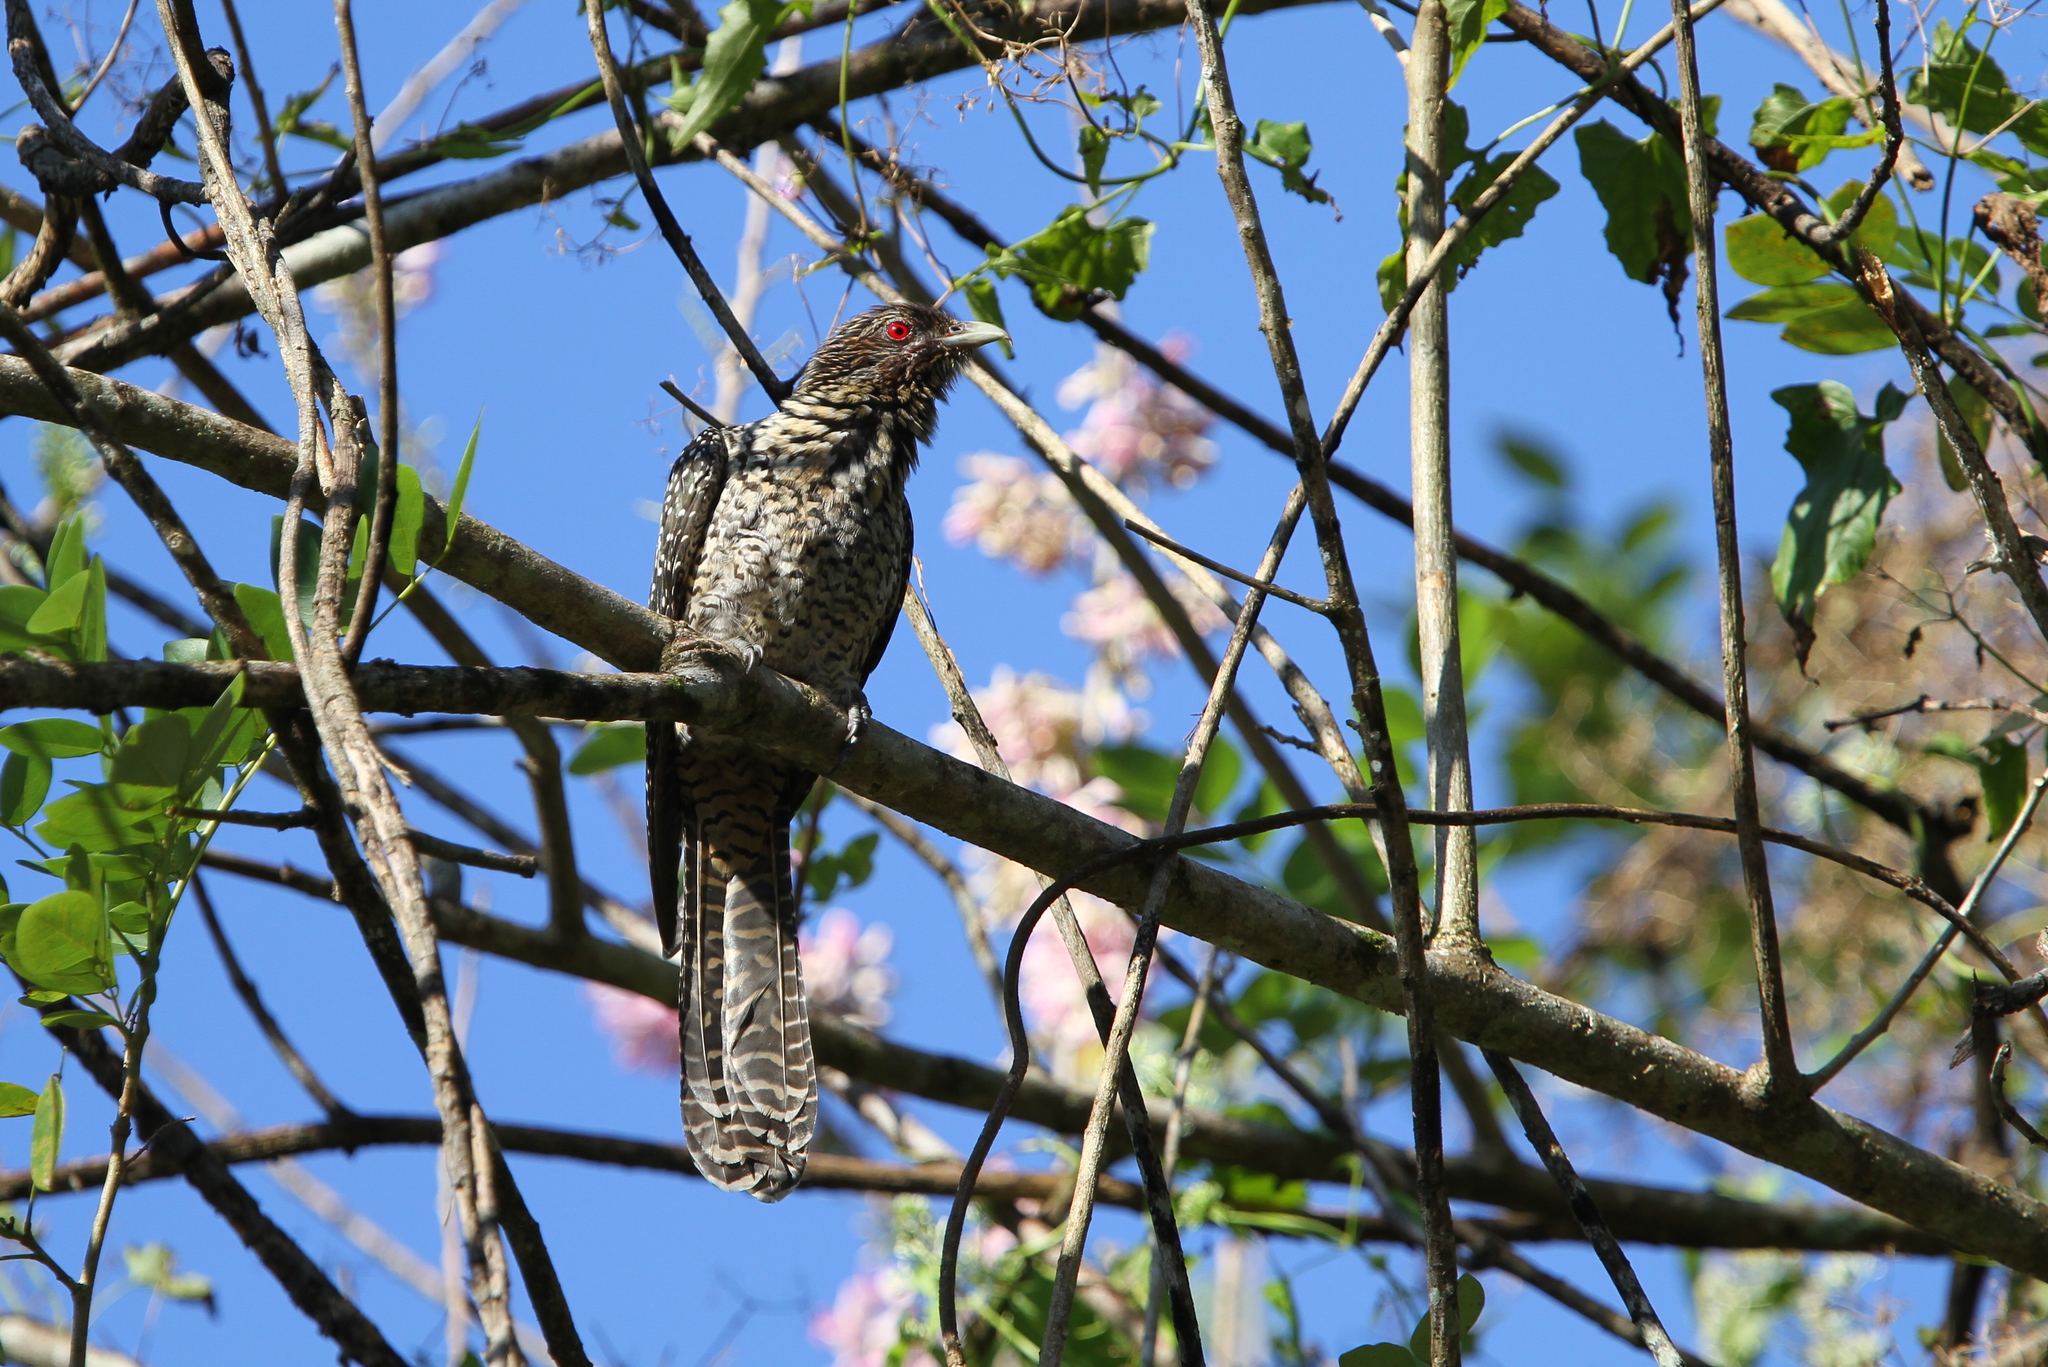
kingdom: Animalia
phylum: Chordata
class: Aves
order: Cuculiformes
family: Cuculidae
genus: Eudynamys
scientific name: Eudynamys scolopaceus
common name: Asian koel
